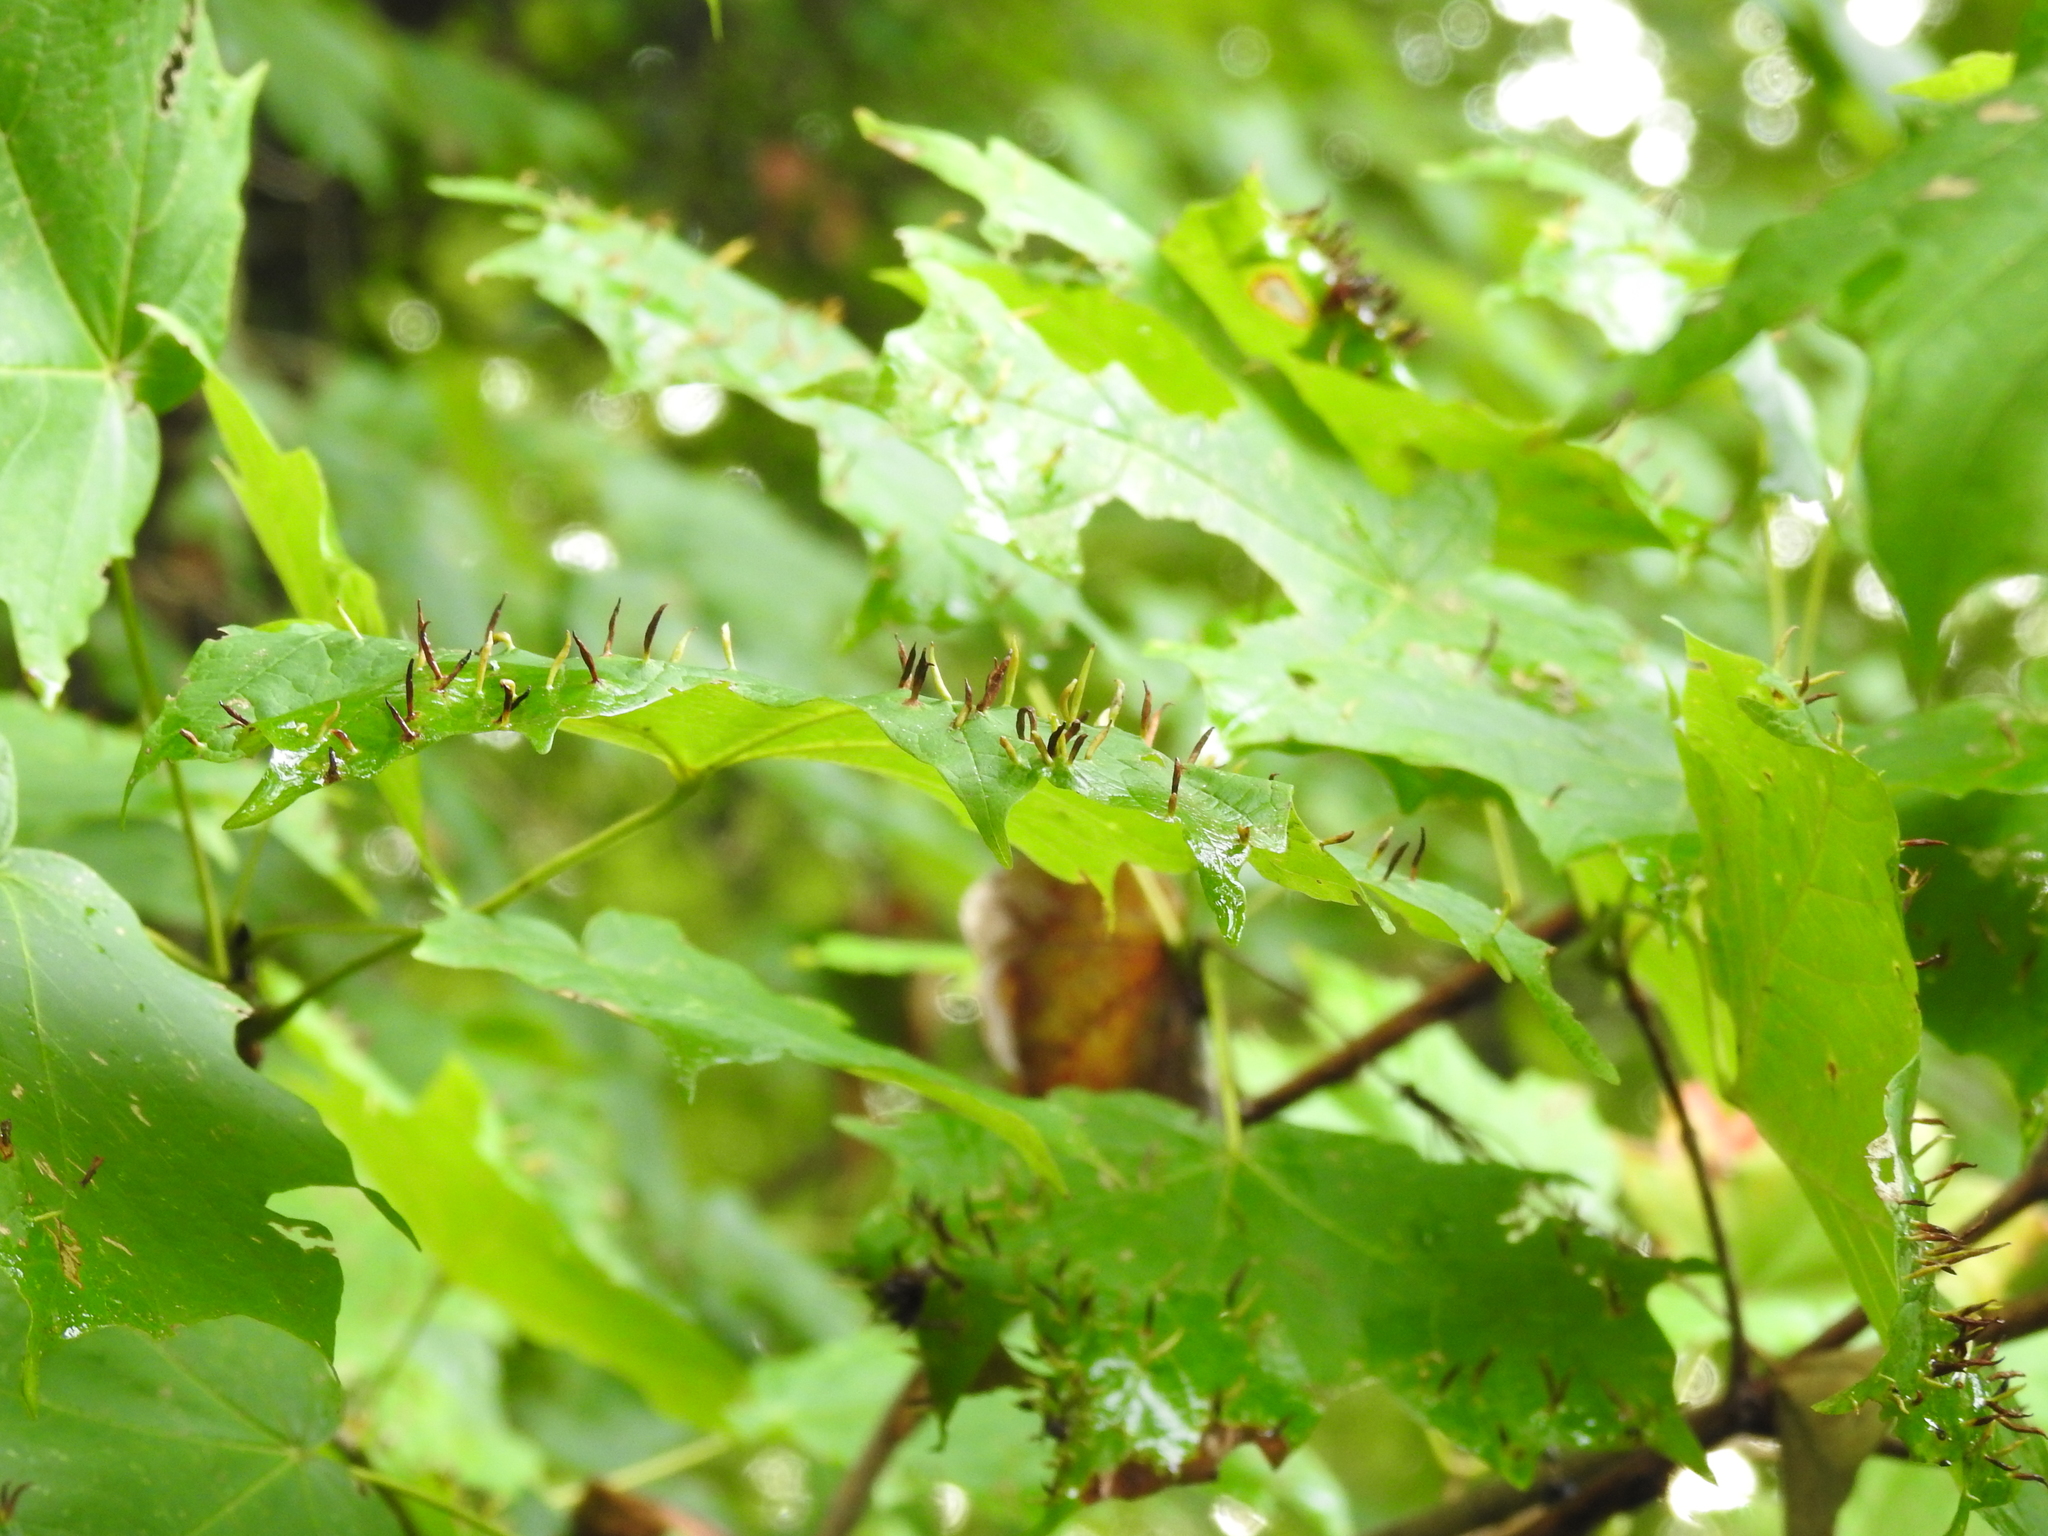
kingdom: Animalia
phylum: Arthropoda
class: Arachnida
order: Trombidiformes
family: Eriophyidae
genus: Vasates
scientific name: Vasates aceriscrumena
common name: Maple spindle gall mite
